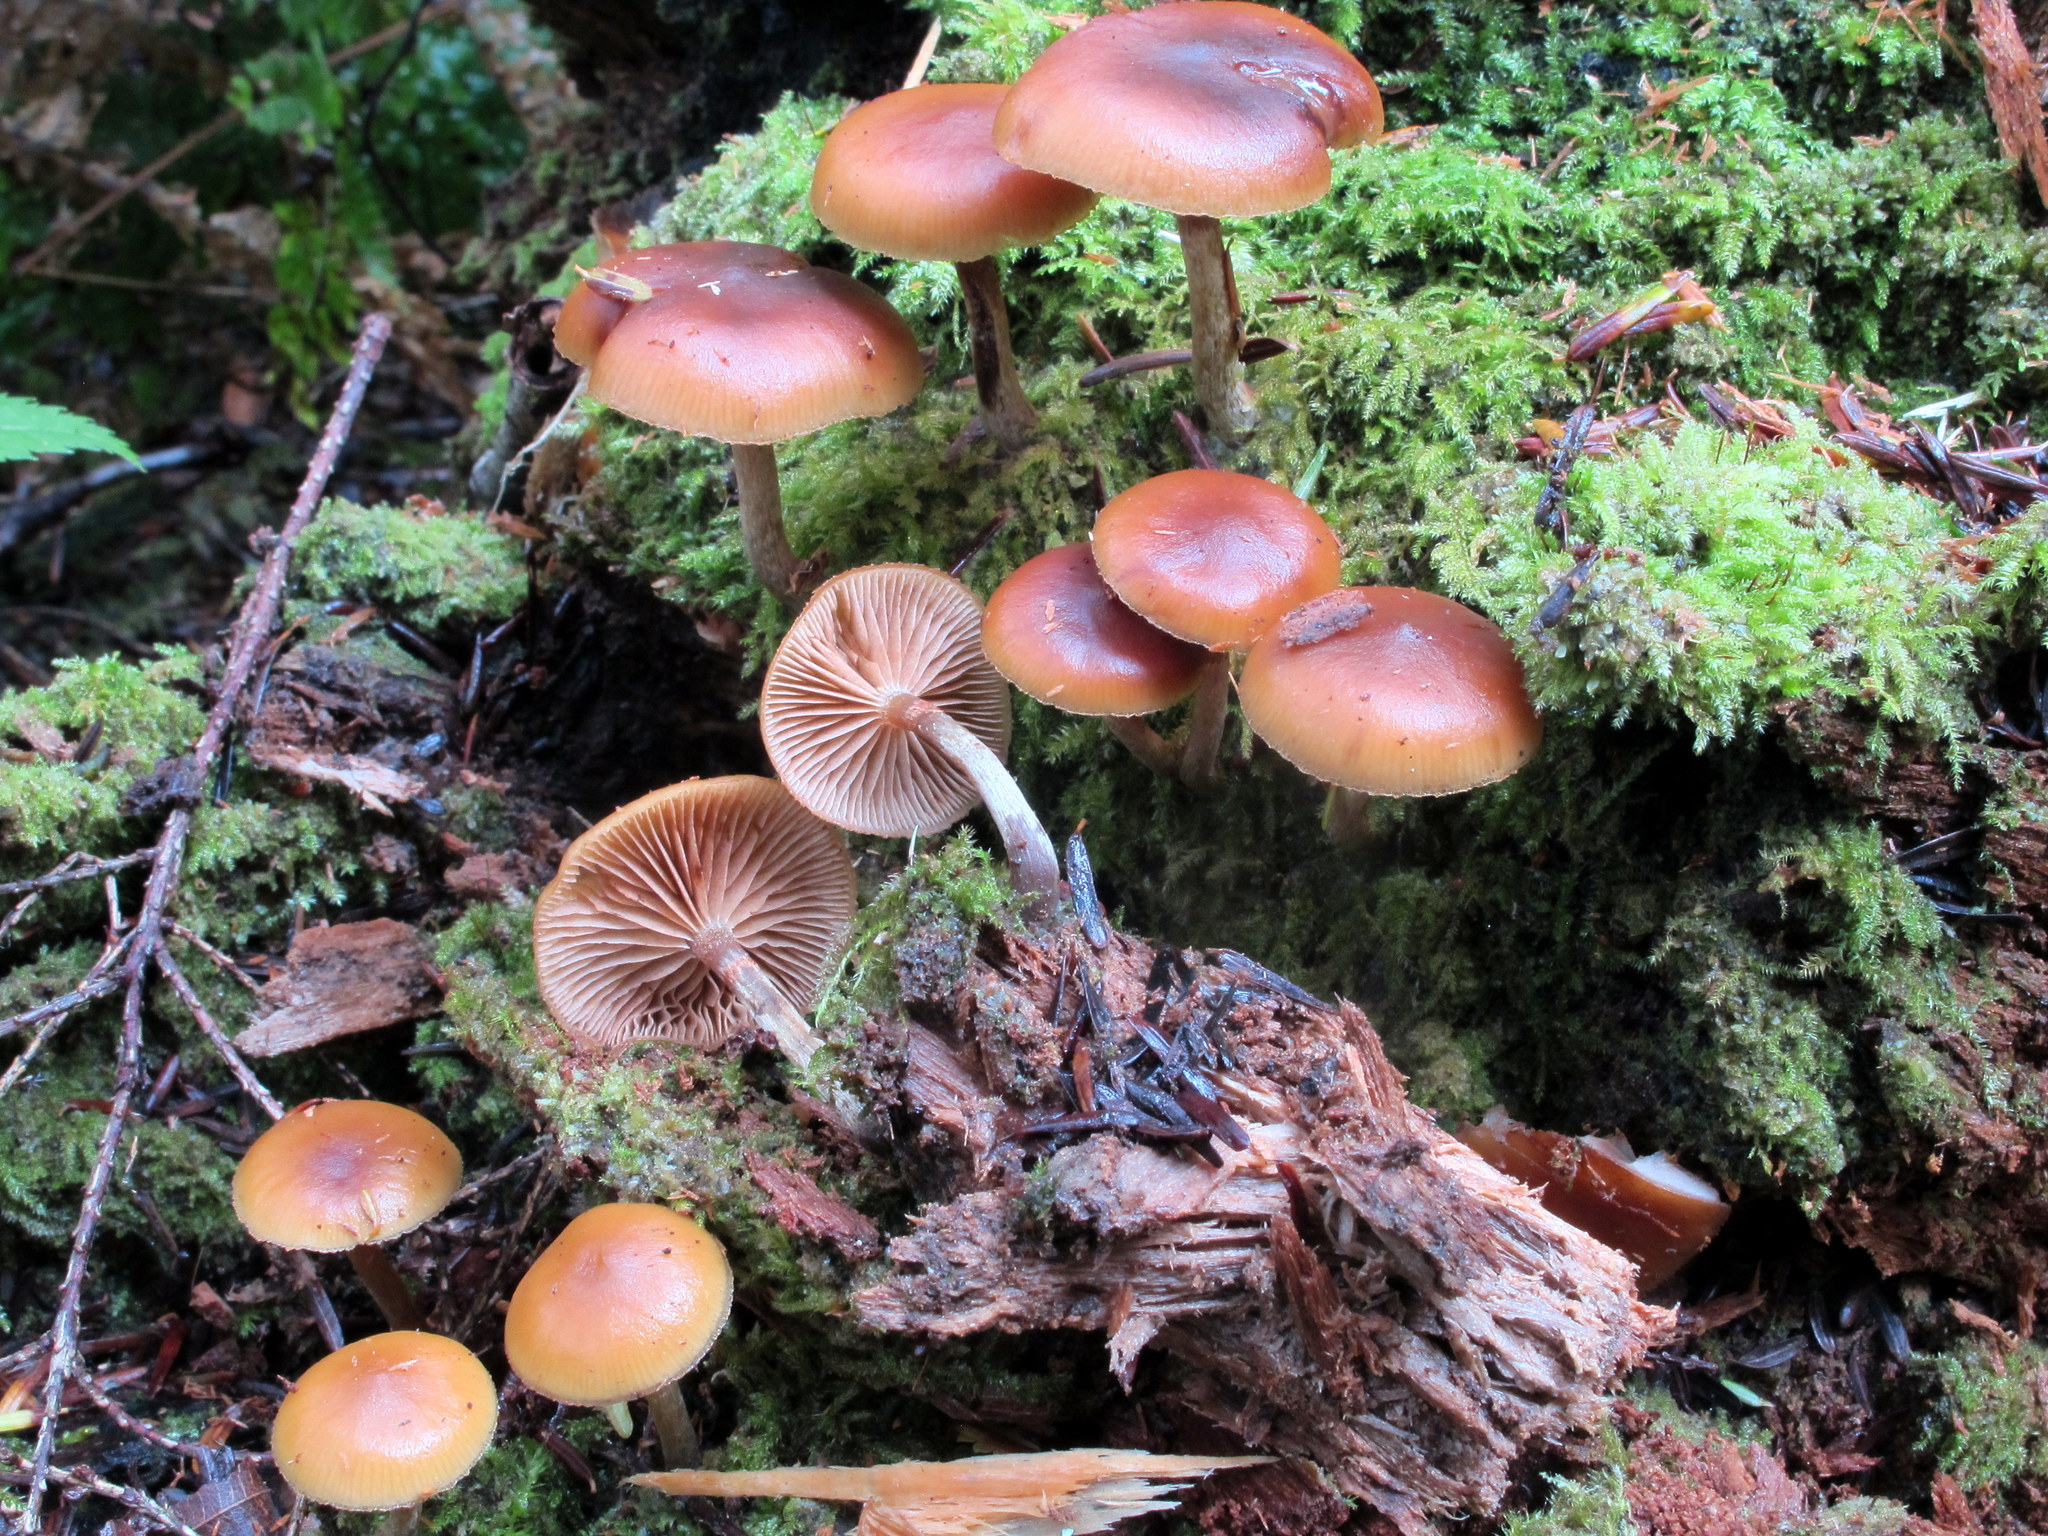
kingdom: Fungi
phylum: Basidiomycota
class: Agaricomycetes
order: Agaricales
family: Hymenogastraceae
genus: Galerina
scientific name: Galerina marginata
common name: Funeral bell
